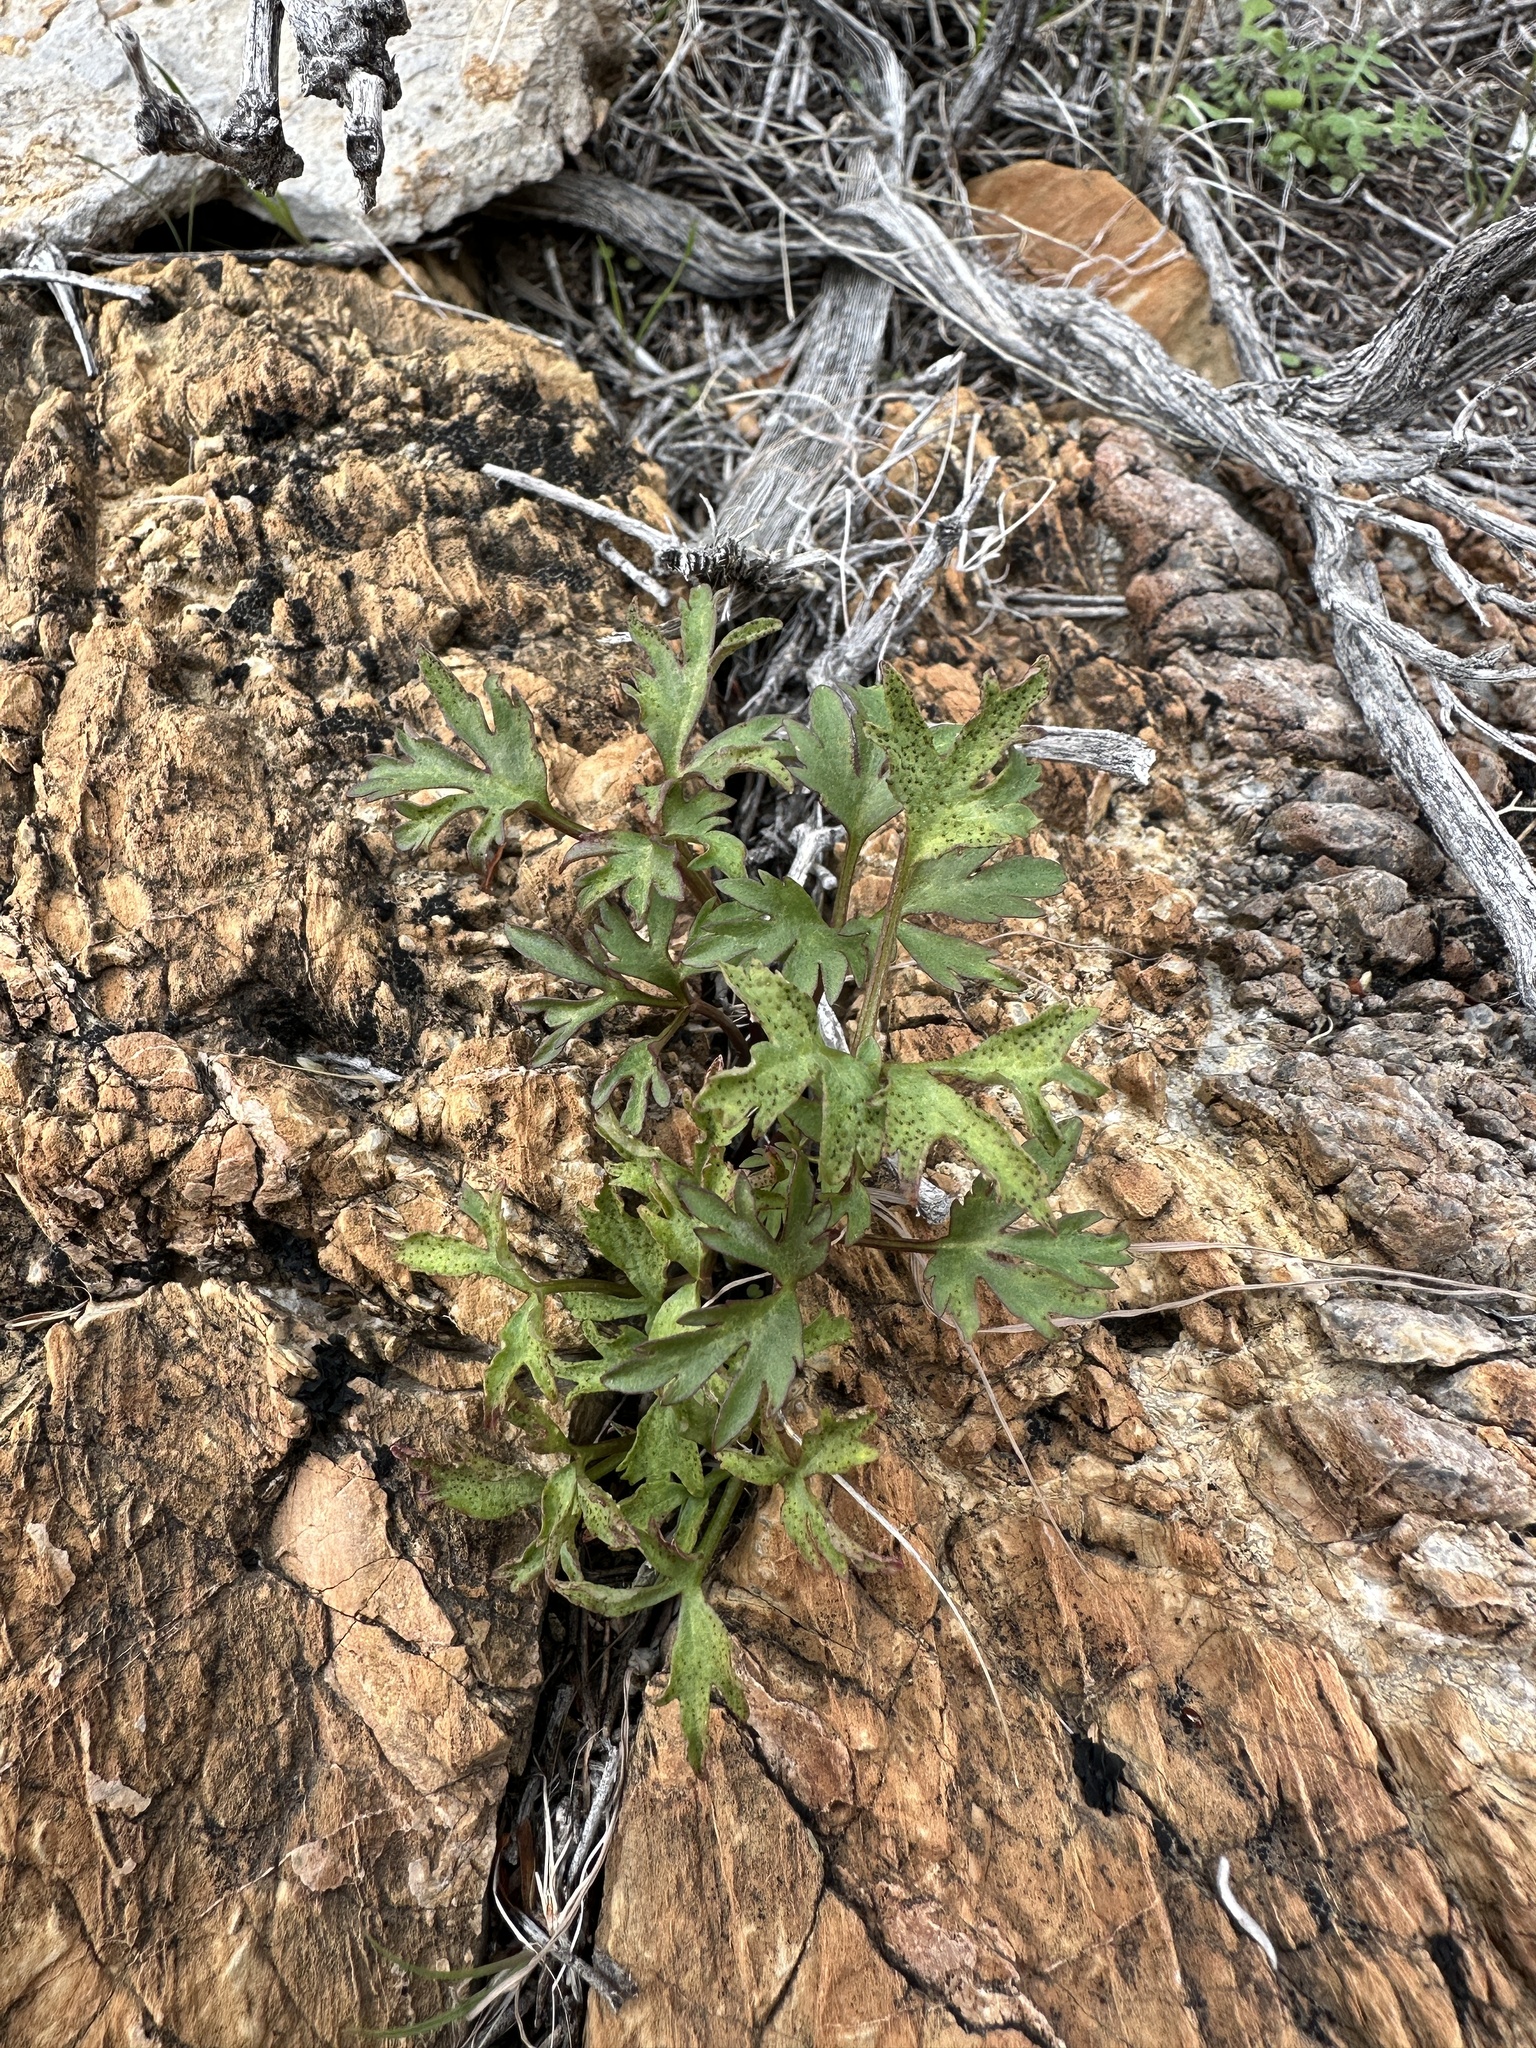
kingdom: Plantae
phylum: Tracheophyta
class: Magnoliopsida
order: Ranunculales
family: Ranunculaceae
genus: Anemone
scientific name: Anemone tuberosa
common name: Desert anemone
